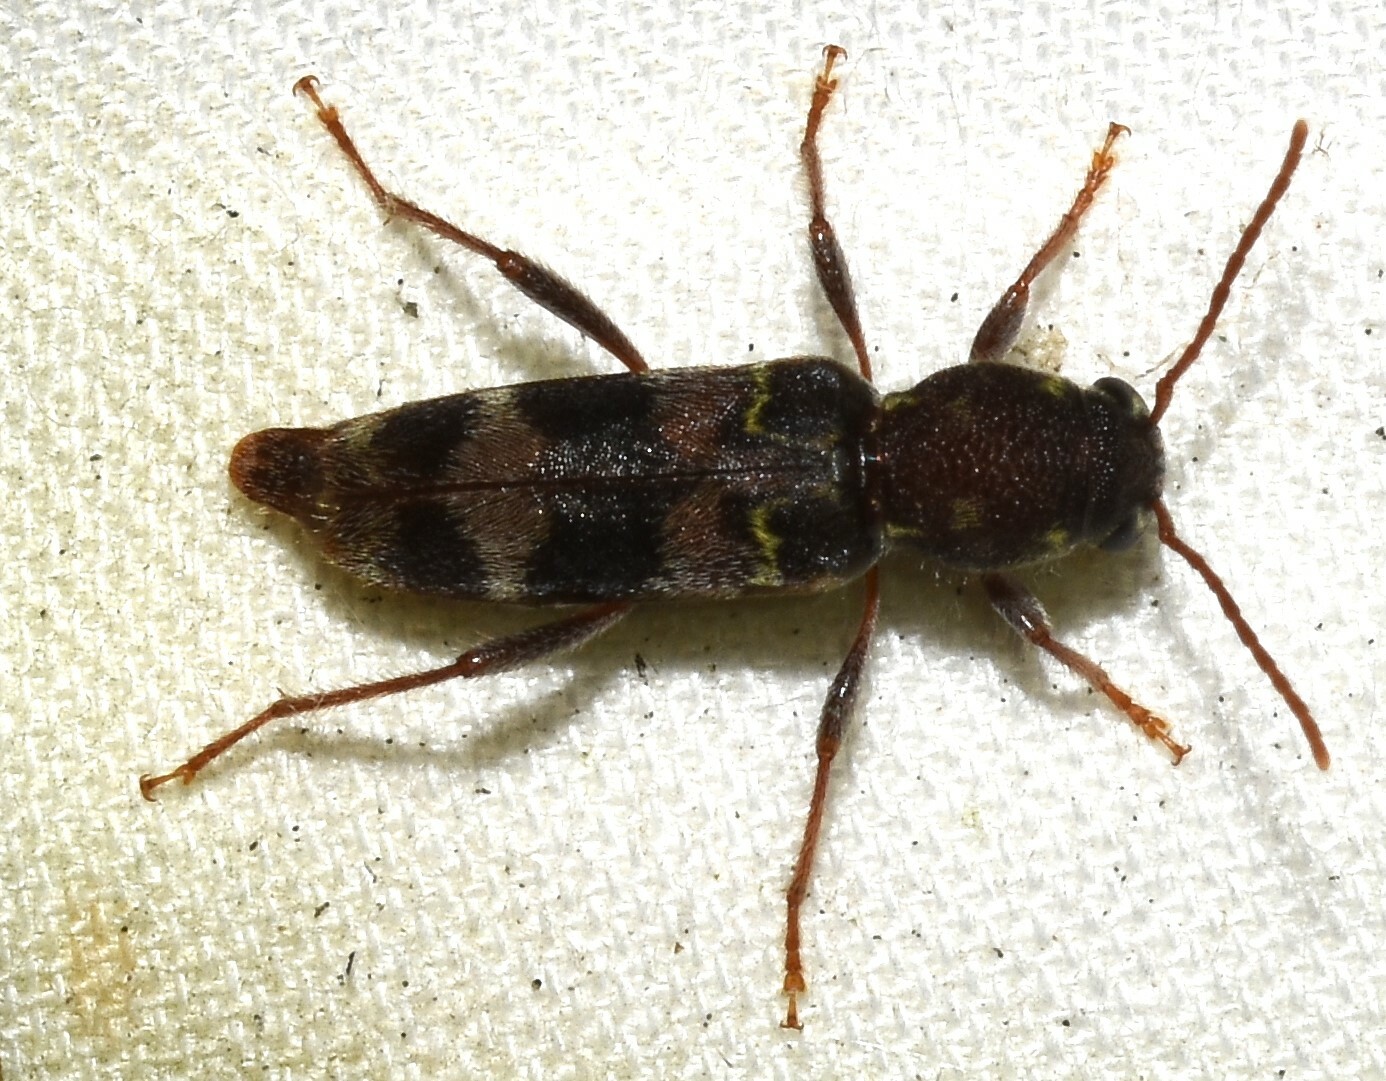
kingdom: Animalia
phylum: Arthropoda
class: Insecta
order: Coleoptera
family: Cerambycidae
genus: Xylotrechus
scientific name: Xylotrechus colonus
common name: Long-horned beetle
